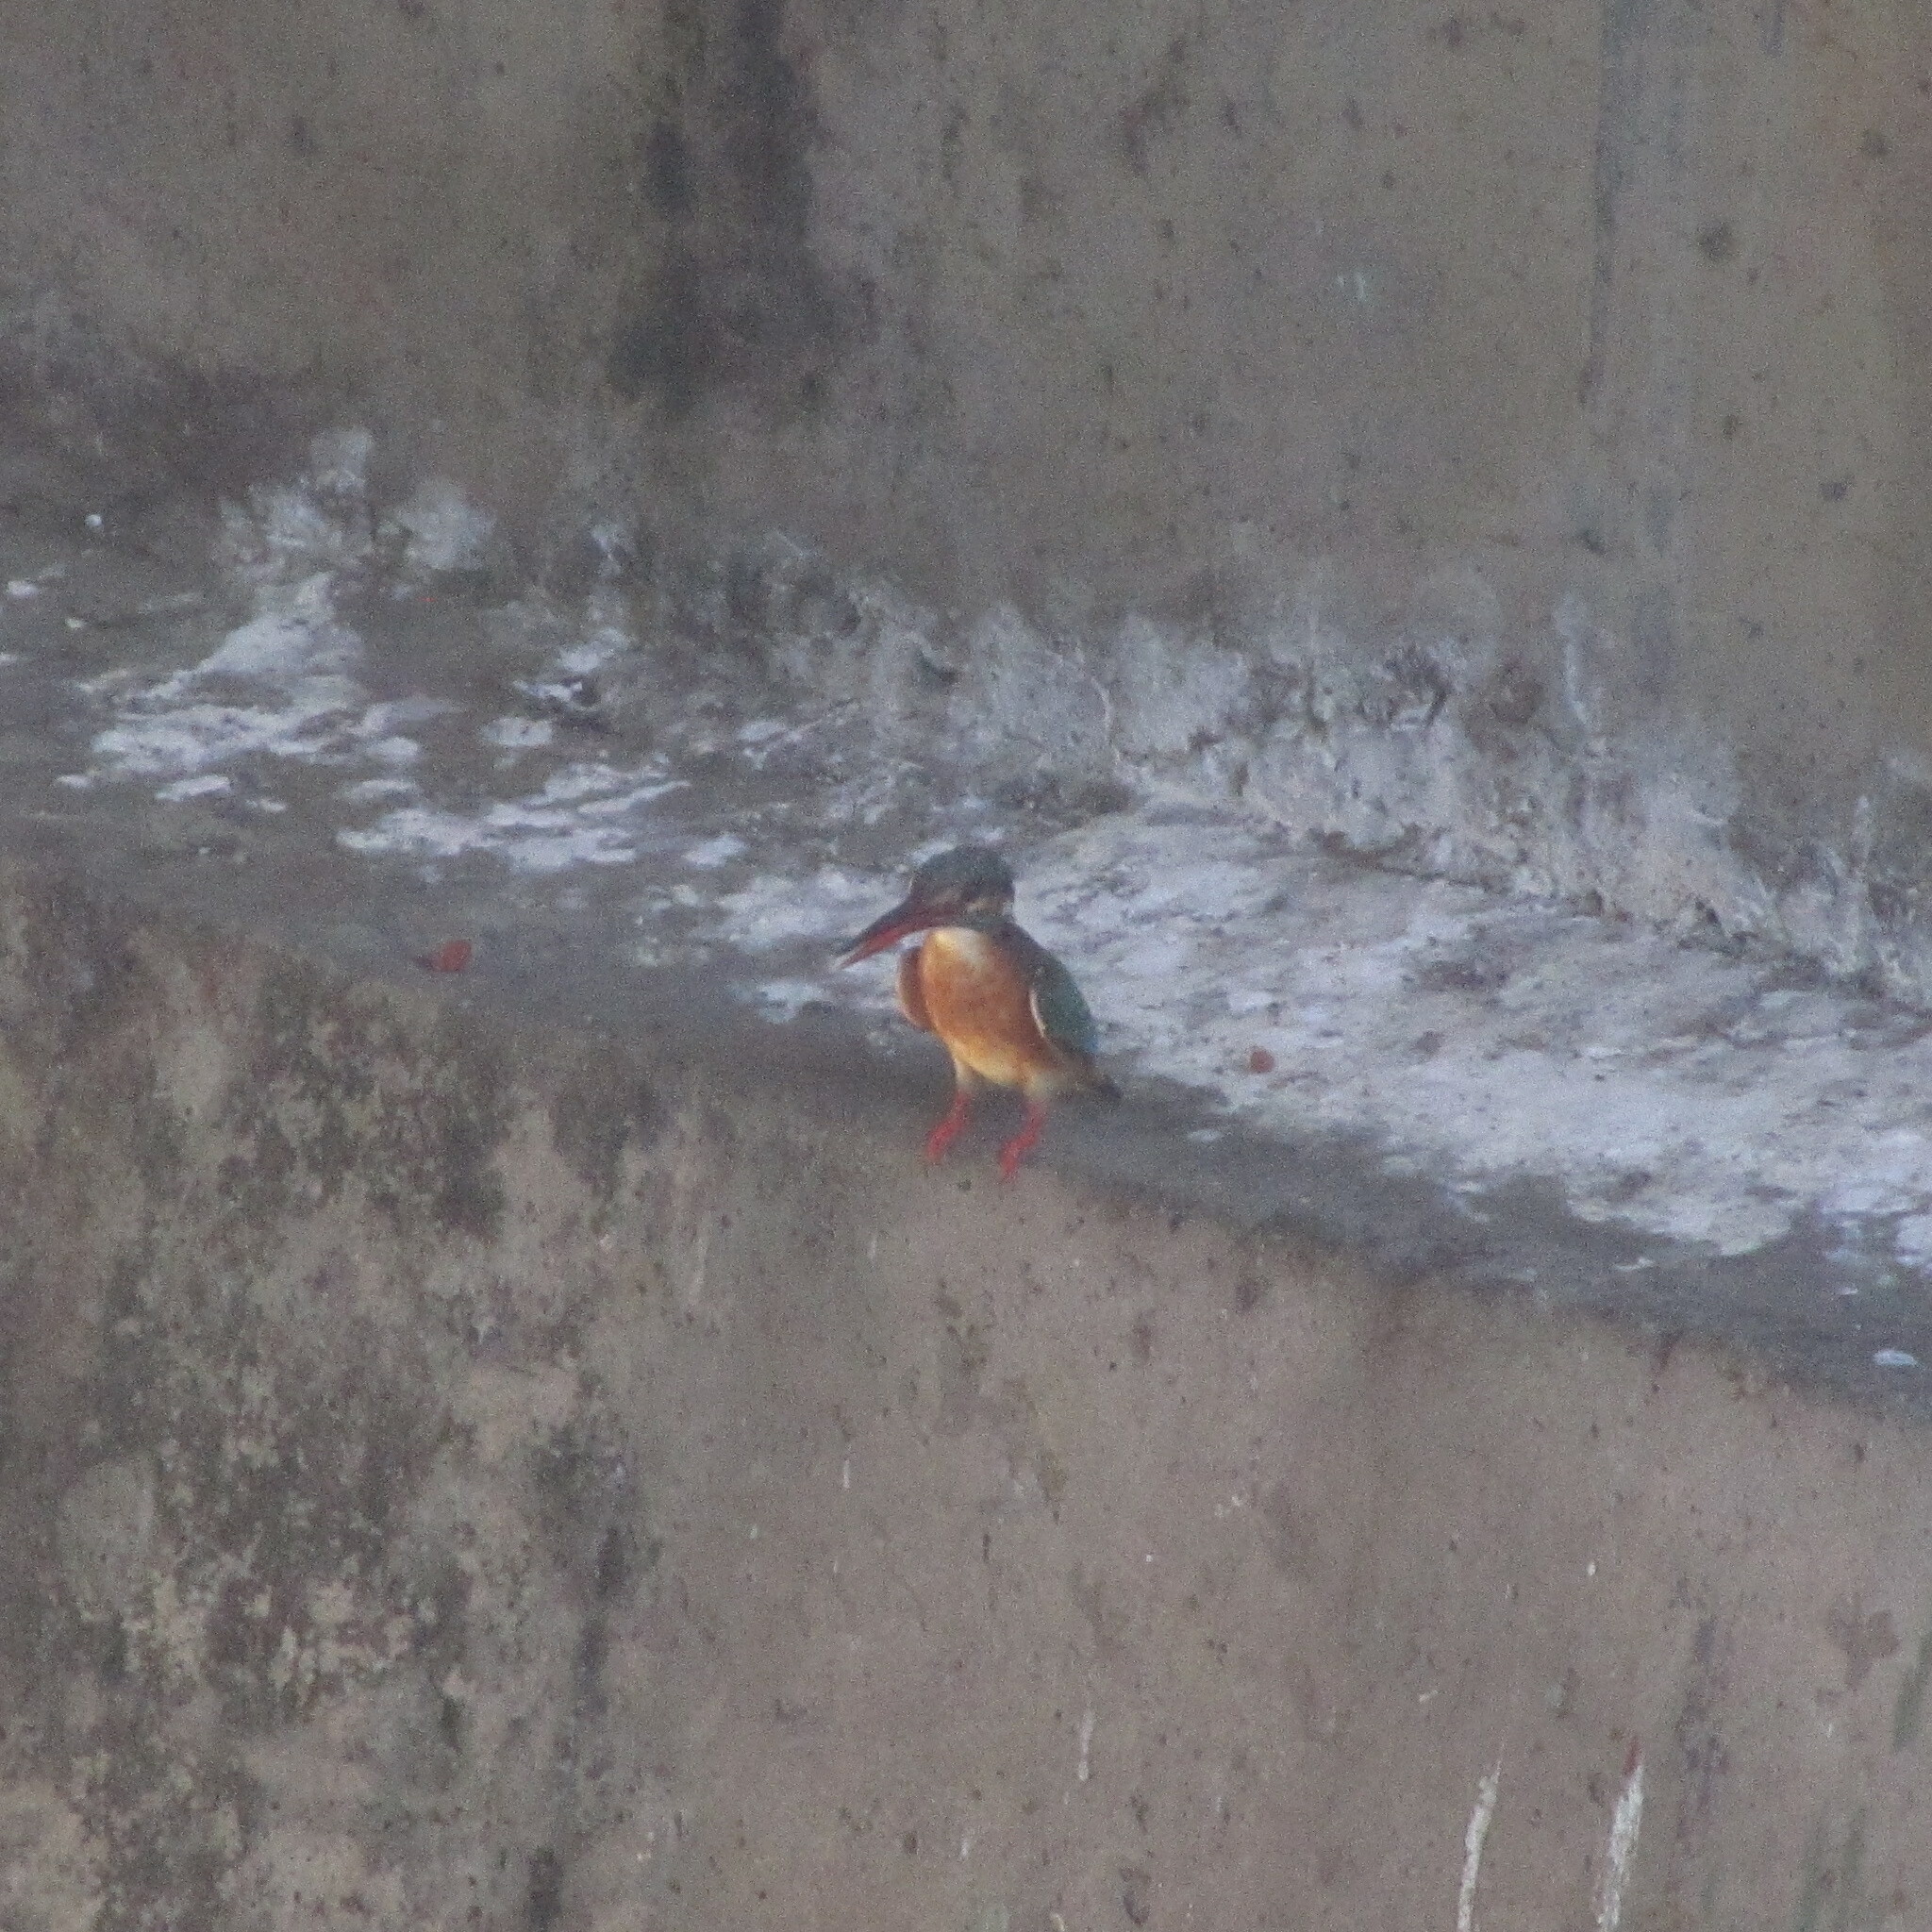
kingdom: Animalia
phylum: Chordata
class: Aves
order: Coraciiformes
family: Alcedinidae
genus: Alcedo
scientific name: Alcedo atthis
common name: Common kingfisher
